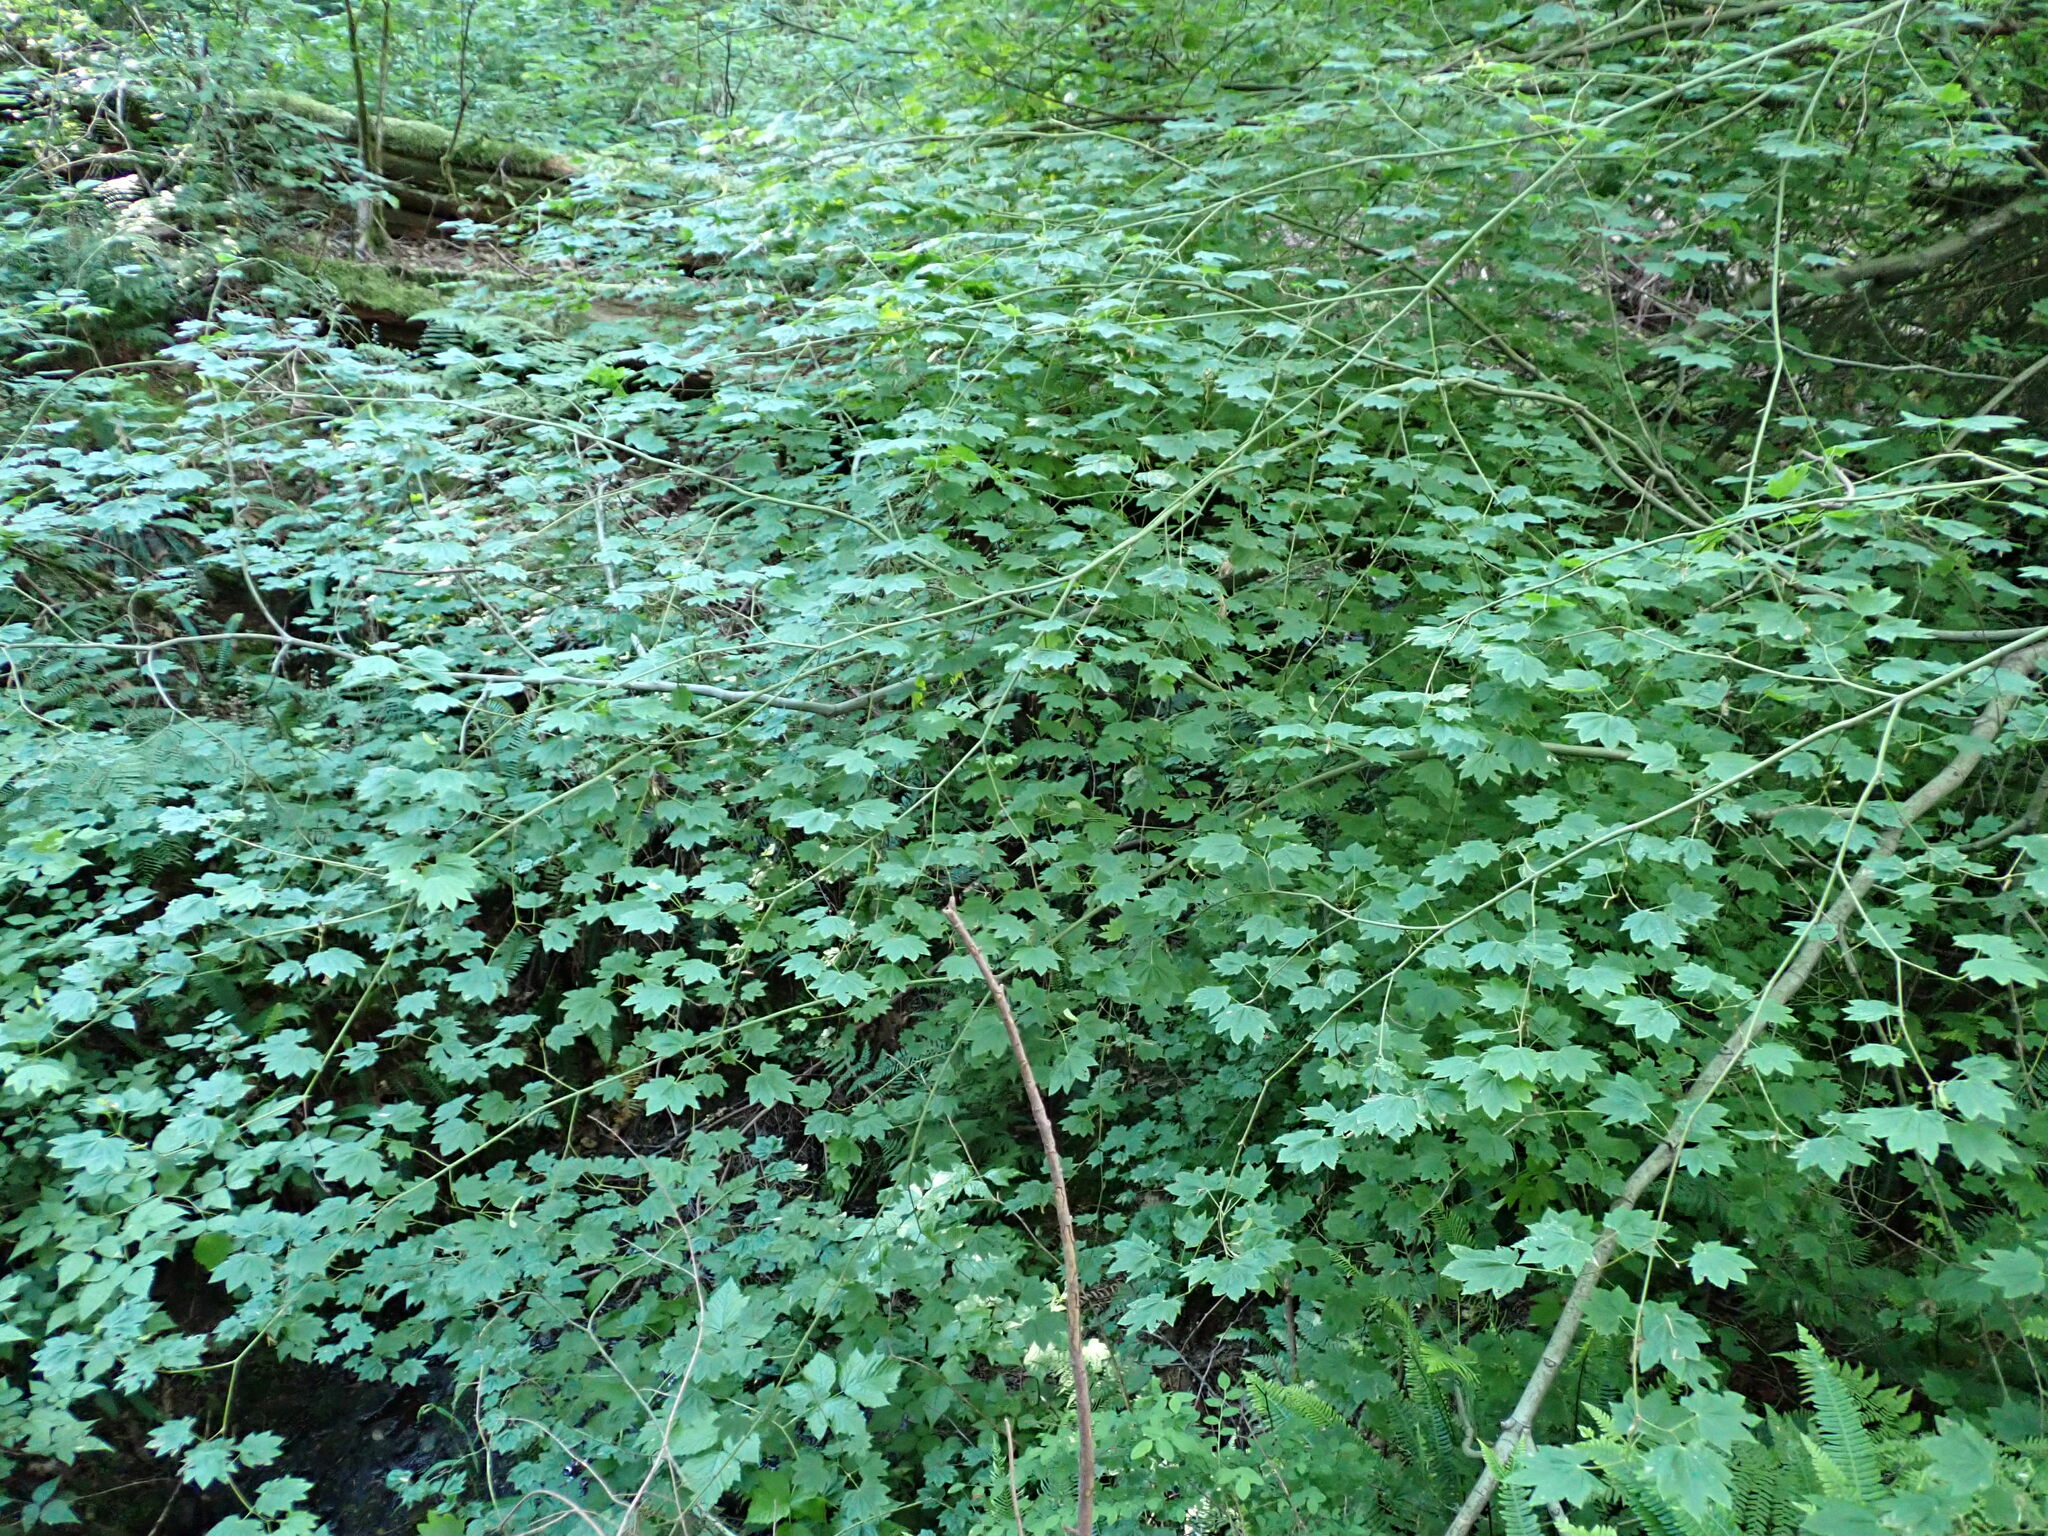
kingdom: Plantae
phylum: Tracheophyta
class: Magnoliopsida
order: Sapindales
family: Sapindaceae
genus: Acer
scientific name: Acer circinatum
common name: Vine maple
